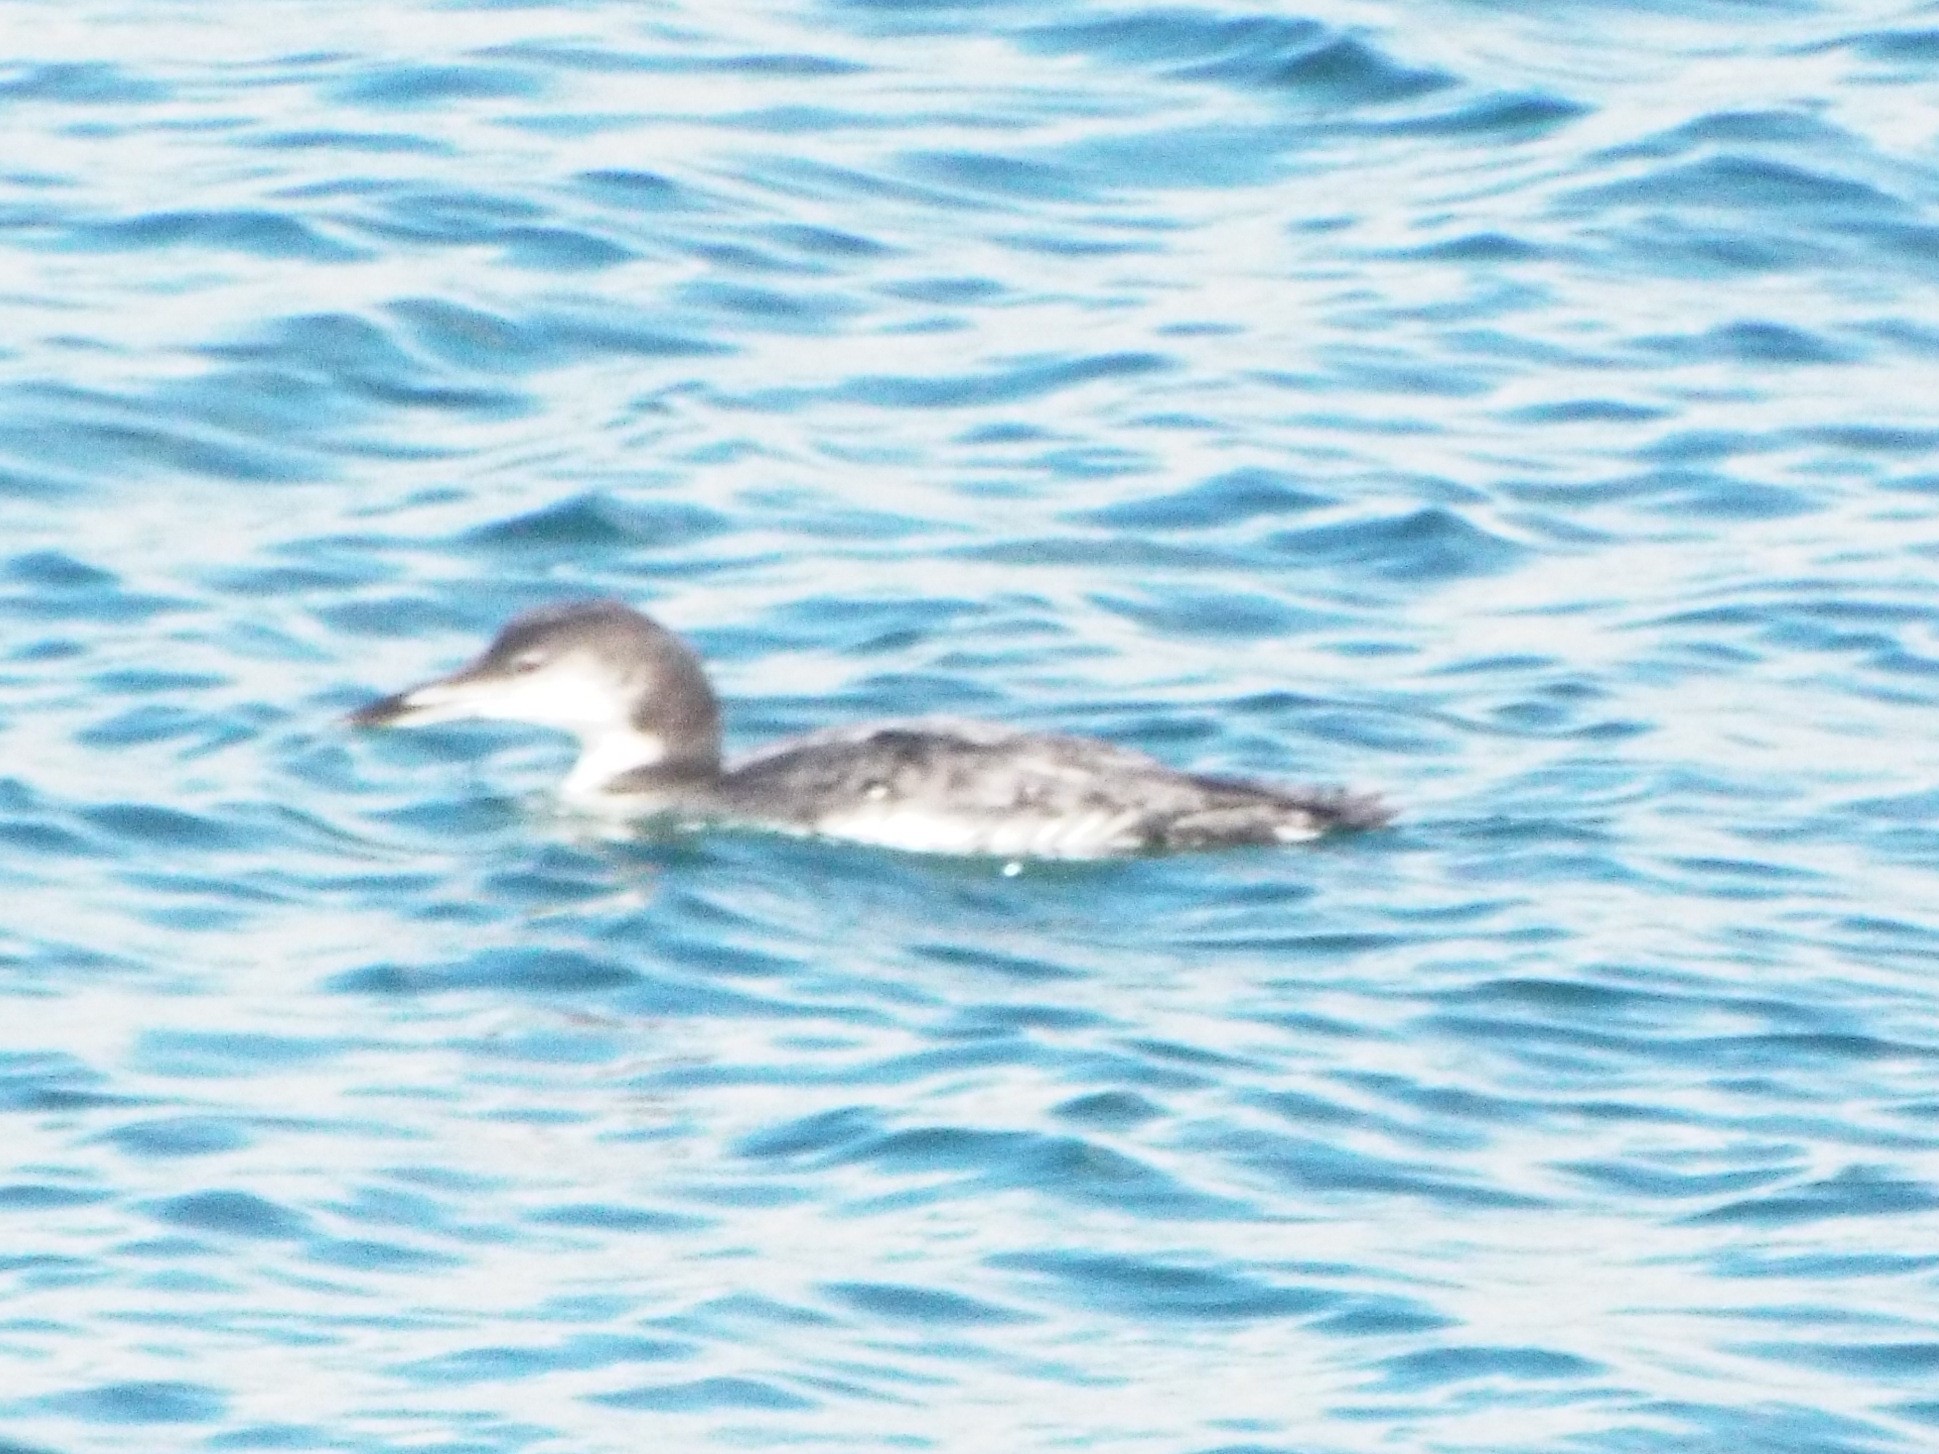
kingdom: Animalia
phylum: Chordata
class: Aves
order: Gaviiformes
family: Gaviidae
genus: Gavia
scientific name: Gavia immer
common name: Common loon
